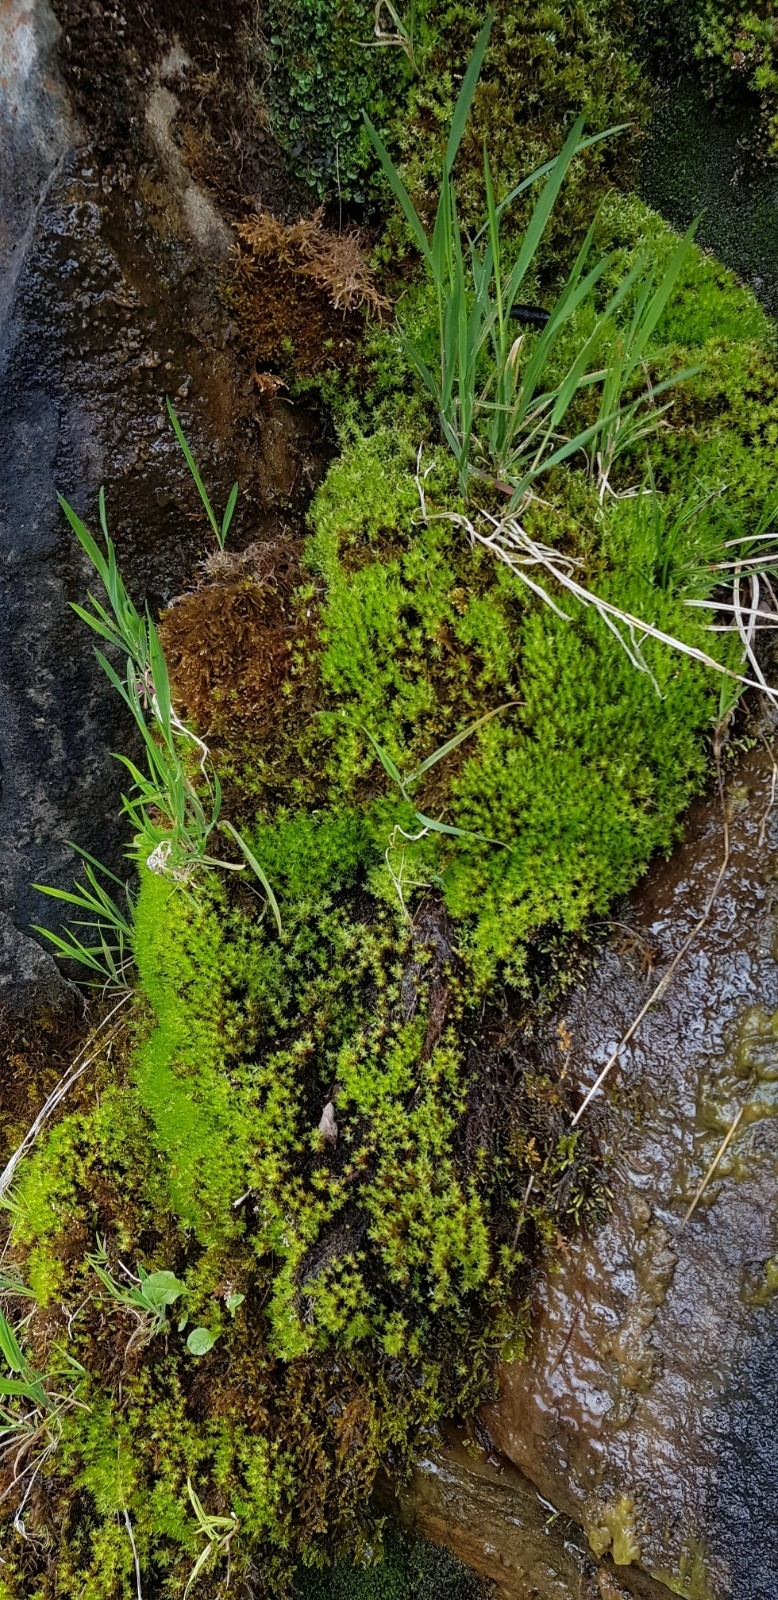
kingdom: Plantae
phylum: Bryophyta
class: Bryopsida
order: Bryales
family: Bryaceae
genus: Ptychostomum
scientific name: Ptychostomum pseudotriquetrum
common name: Long-leaved thread moss
